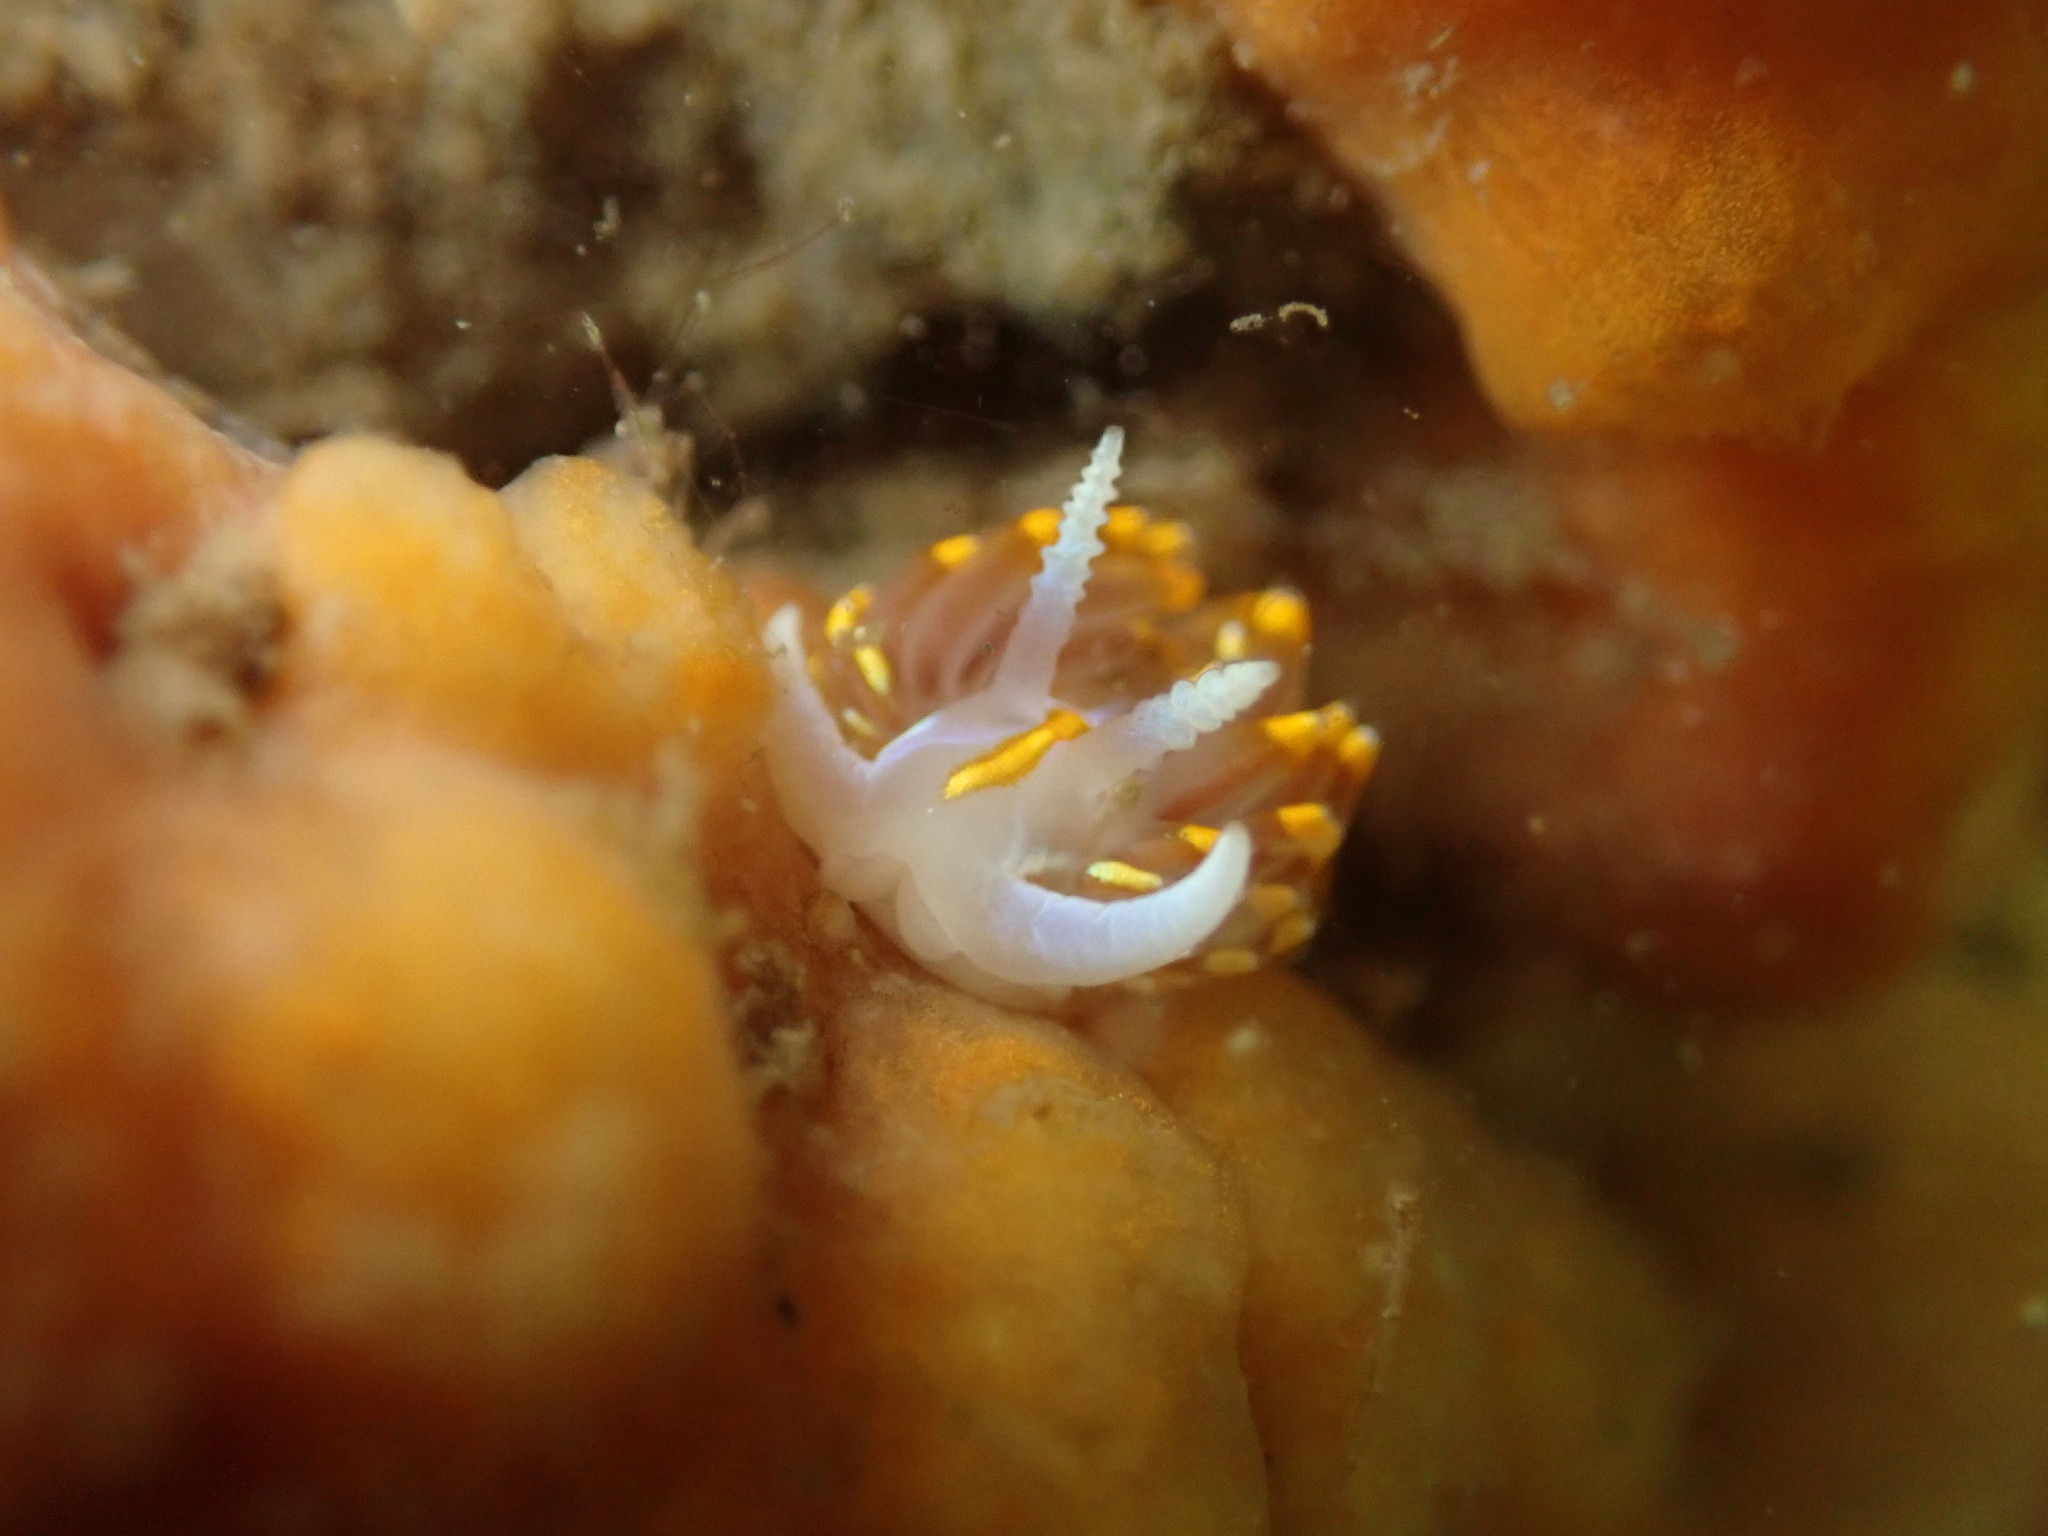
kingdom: Animalia
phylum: Mollusca
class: Gastropoda
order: Nudibranchia
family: Myrrhinidae
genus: Hermissenda
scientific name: Hermissenda opalescens
